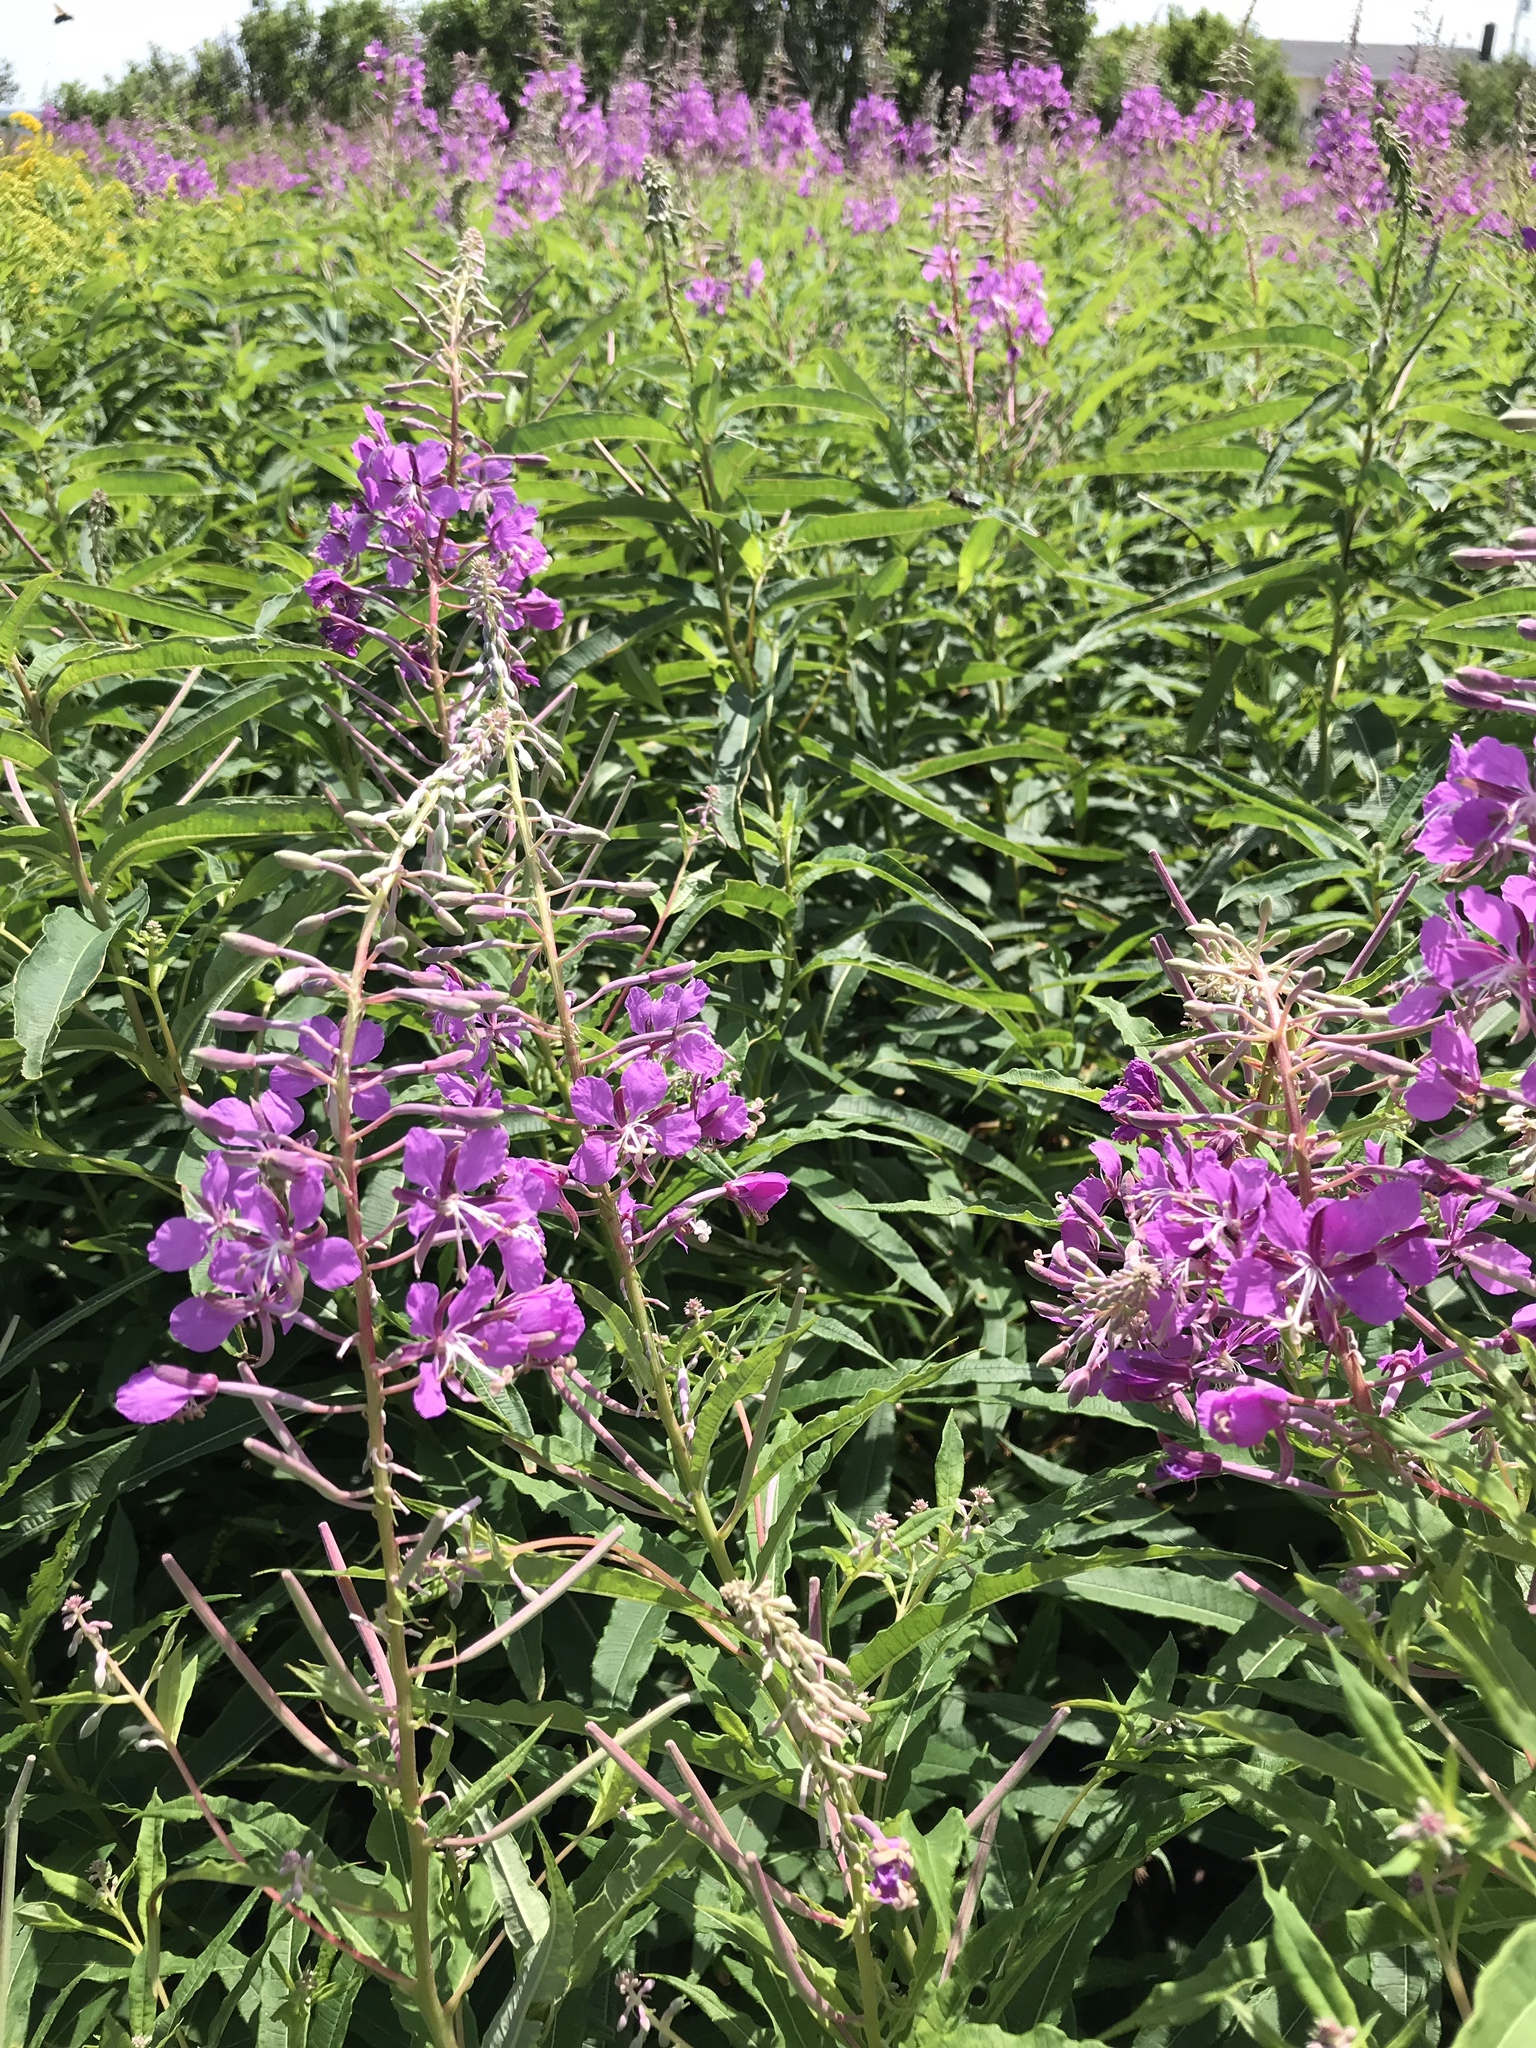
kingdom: Plantae
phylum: Tracheophyta
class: Magnoliopsida
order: Myrtales
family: Onagraceae
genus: Chamaenerion
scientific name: Chamaenerion angustifolium
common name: Fireweed
